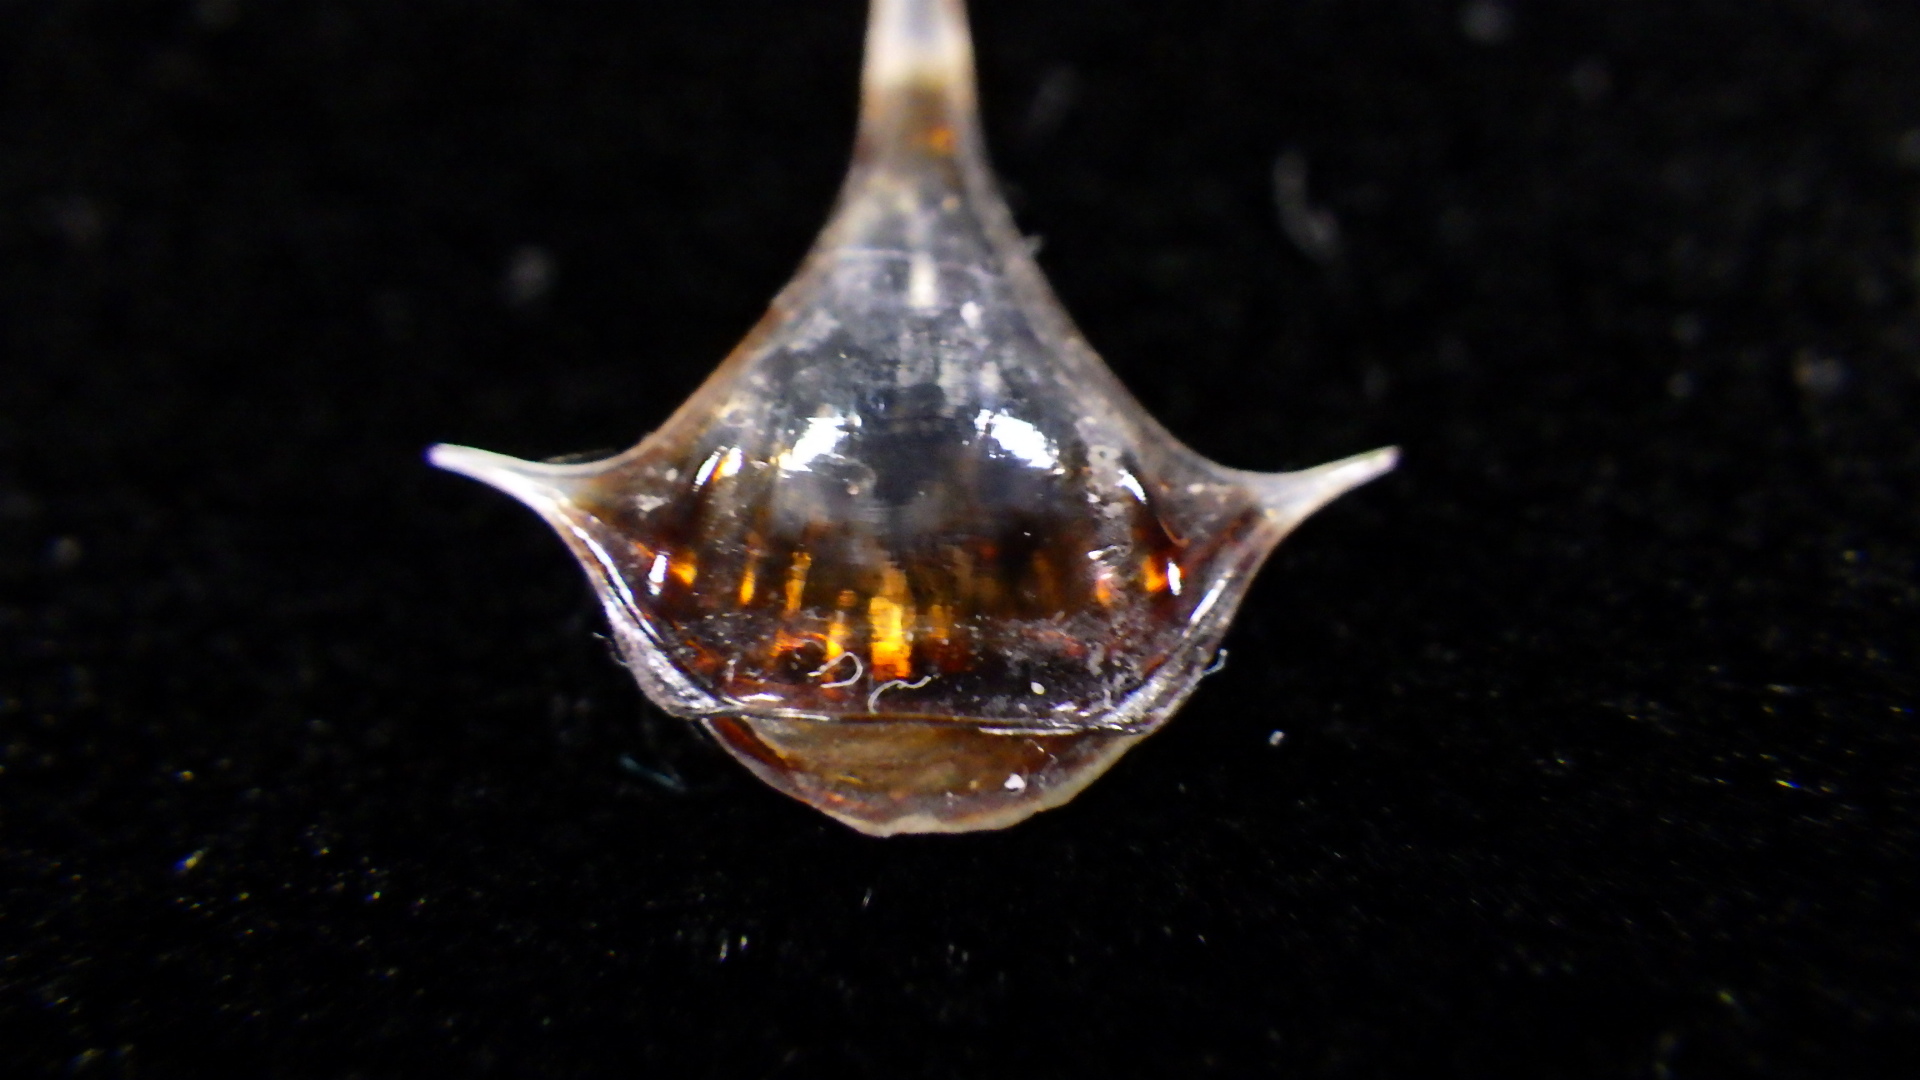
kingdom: Animalia
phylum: Mollusca
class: Gastropoda
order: Pteropoda
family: Cavoliniidae
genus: Diacria
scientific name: Diacria trispinosa
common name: Three-spine cavoline
